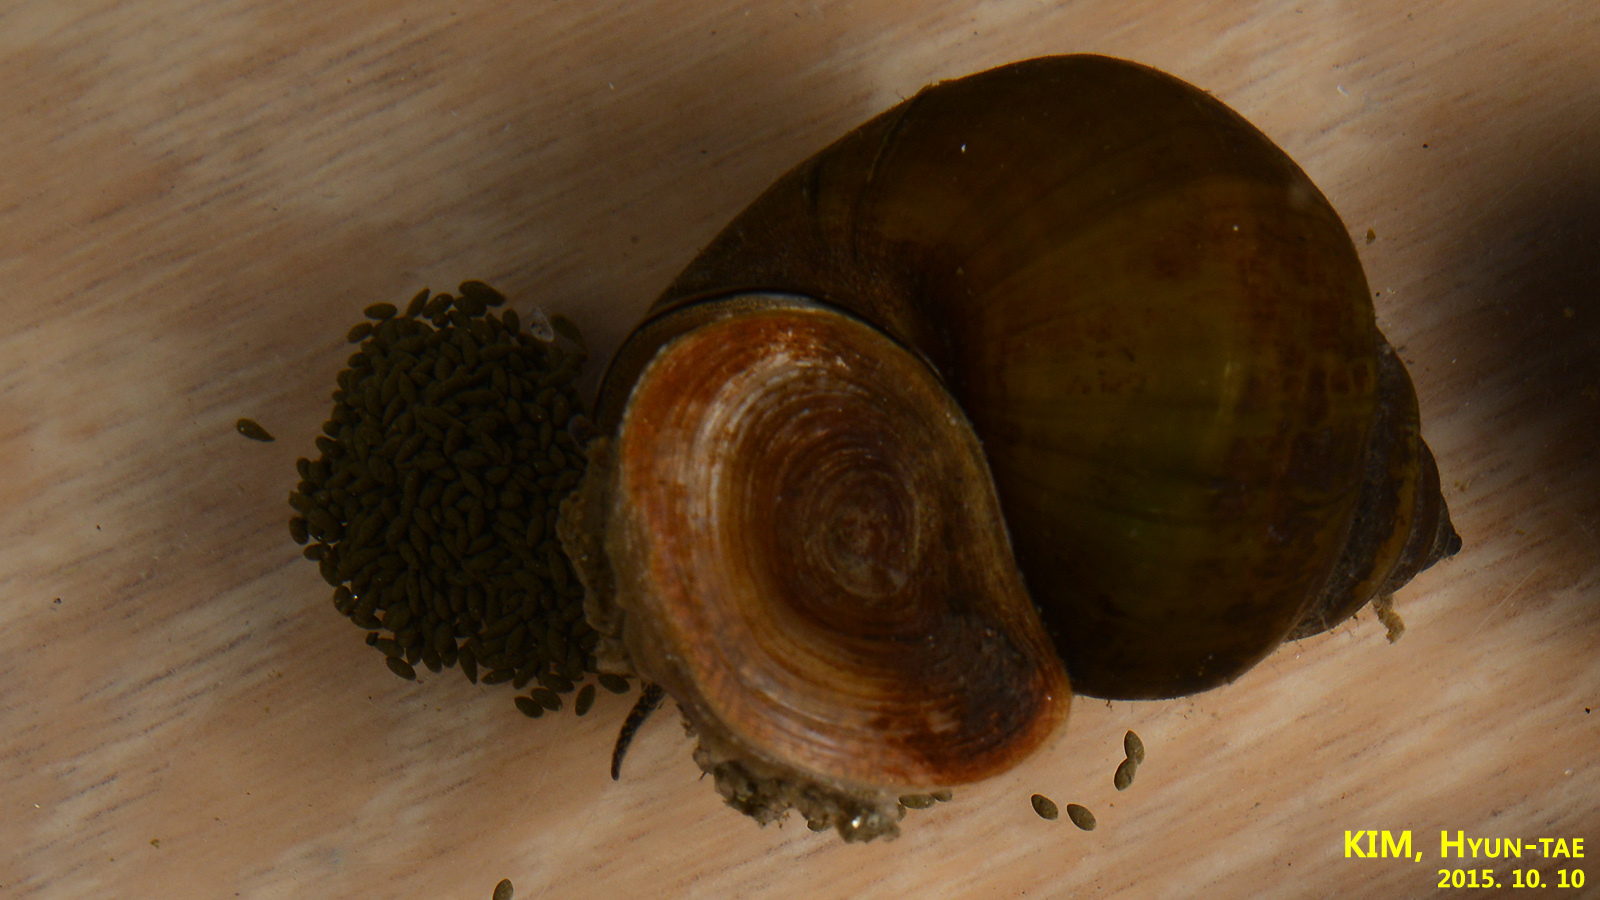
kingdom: Animalia
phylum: Mollusca
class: Gastropoda
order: Architaenioglossa
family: Viviparidae
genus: Cipangopaludina
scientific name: Cipangopaludina chinensis
